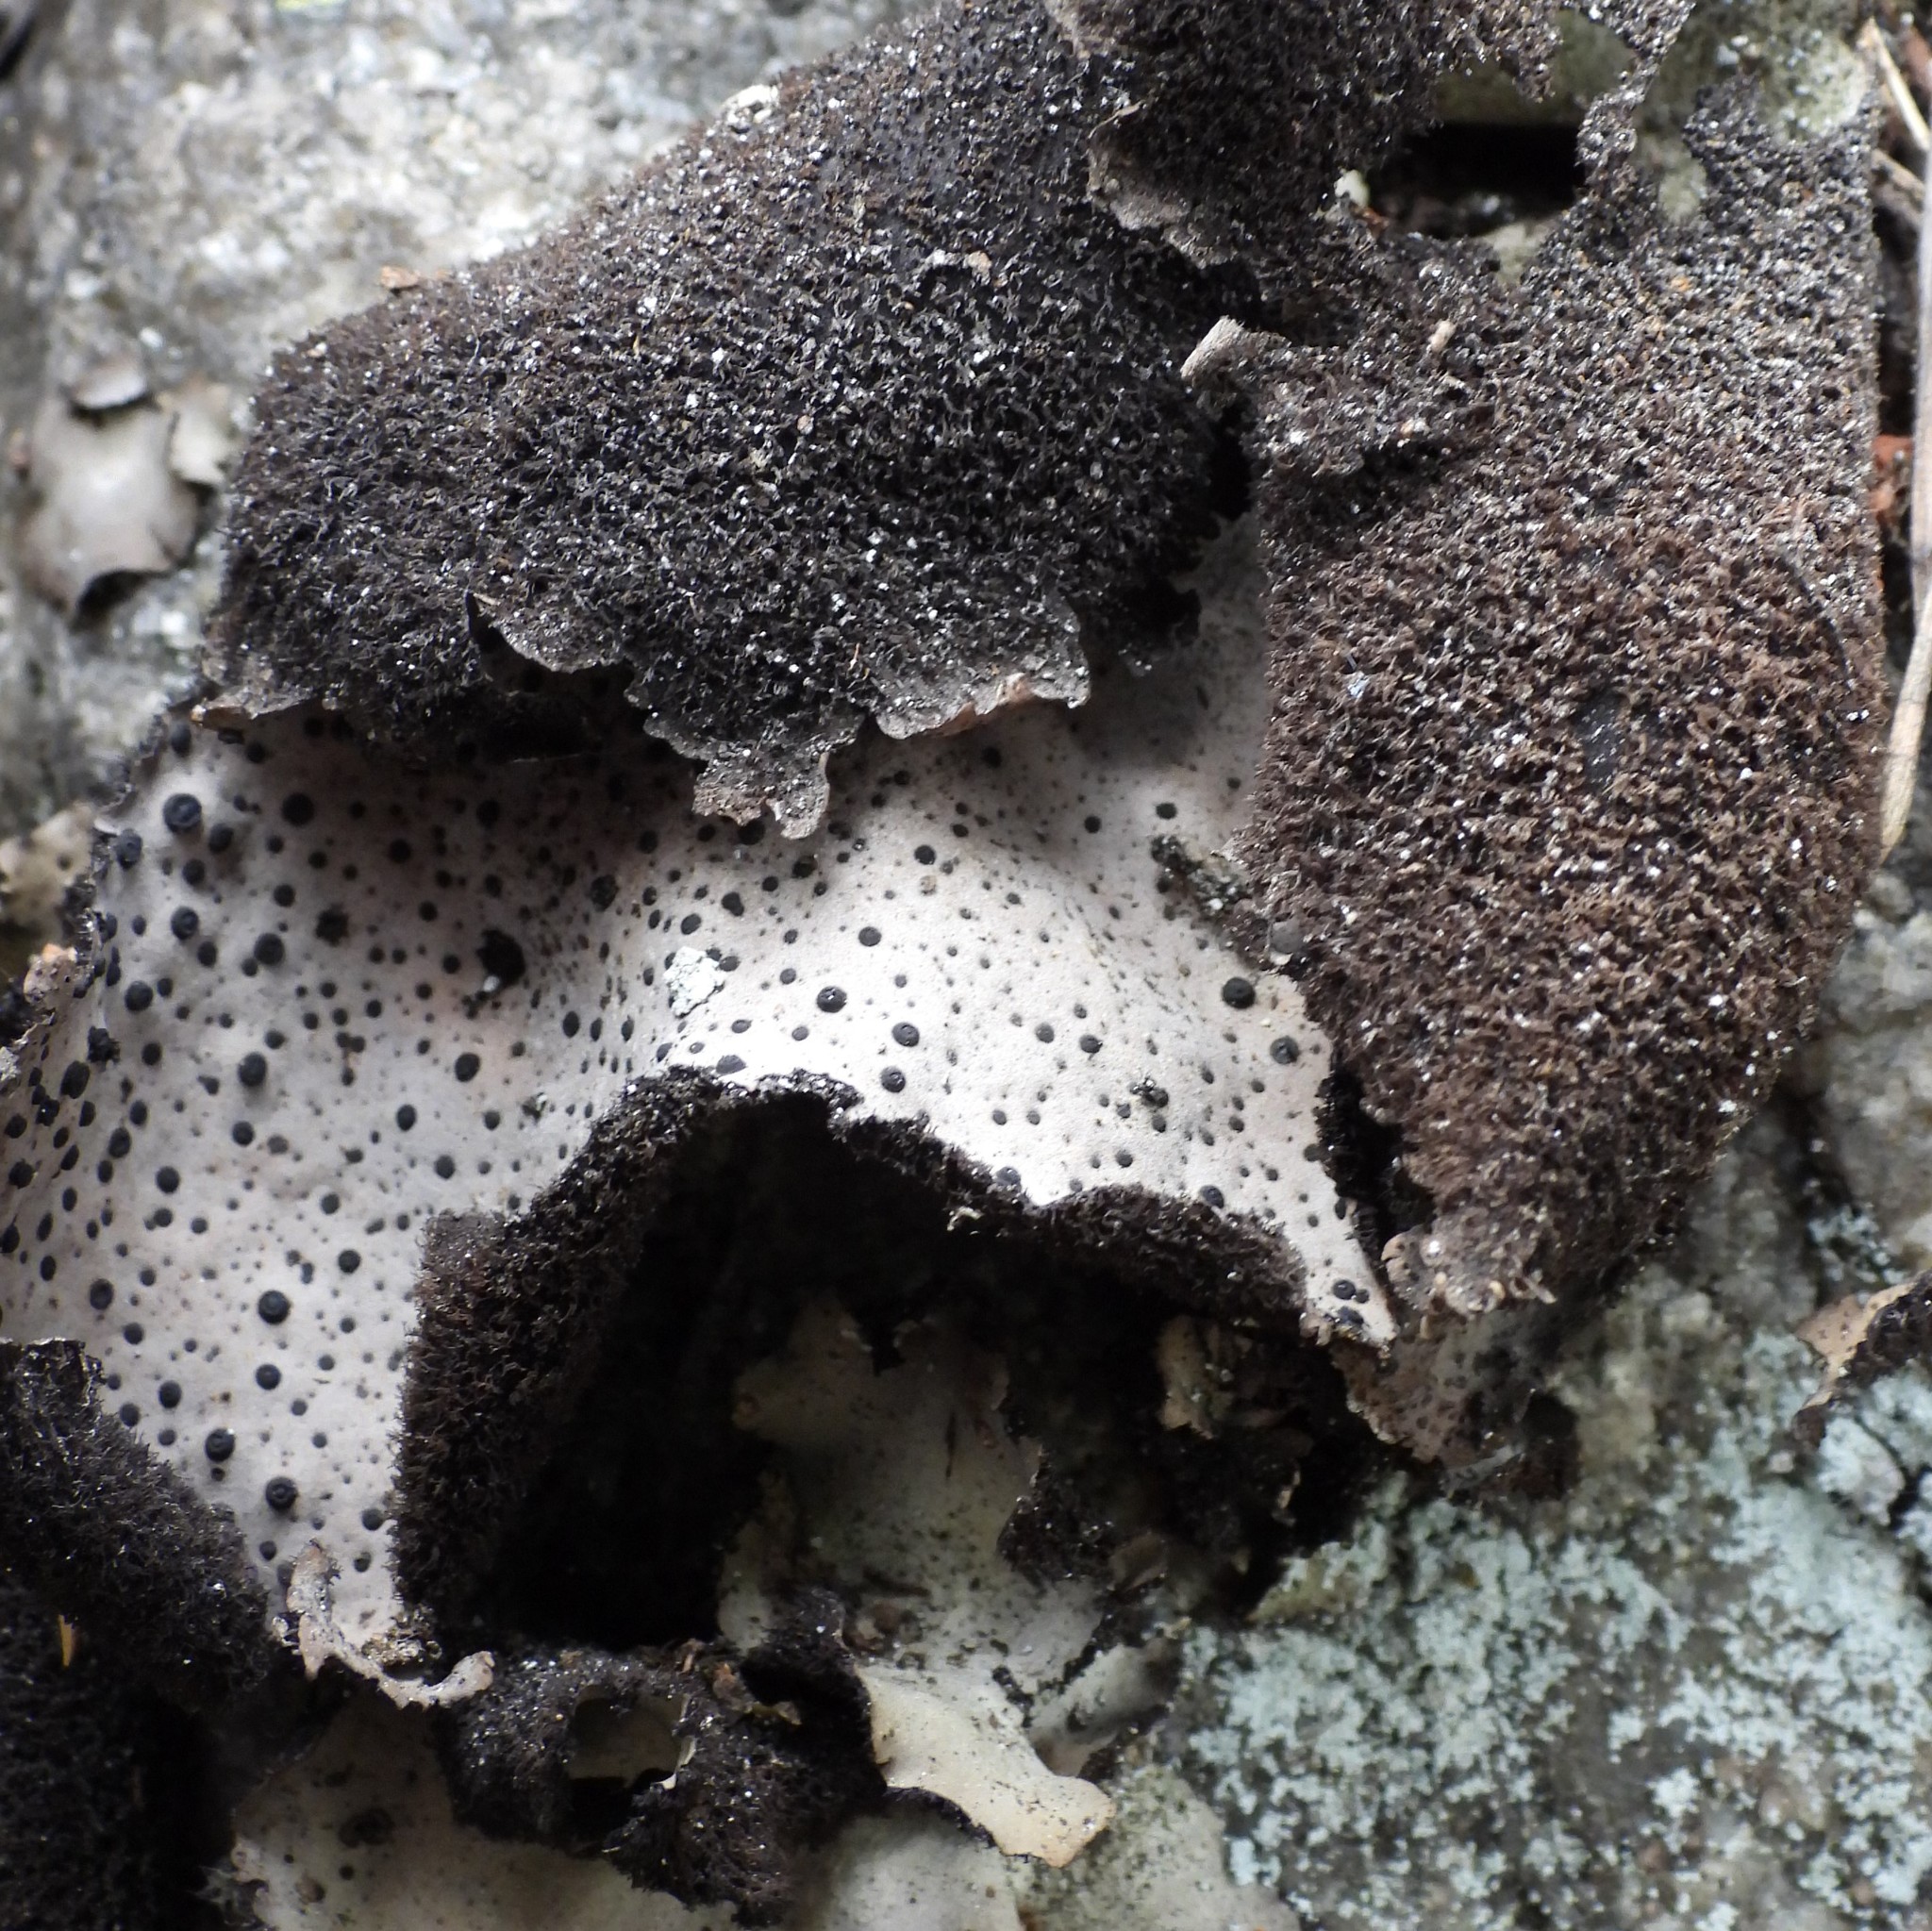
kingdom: Fungi
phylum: Ascomycota
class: Lecanoromycetes
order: Umbilicariales
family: Umbilicariaceae
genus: Umbilicaria
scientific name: Umbilicaria spodochroa
